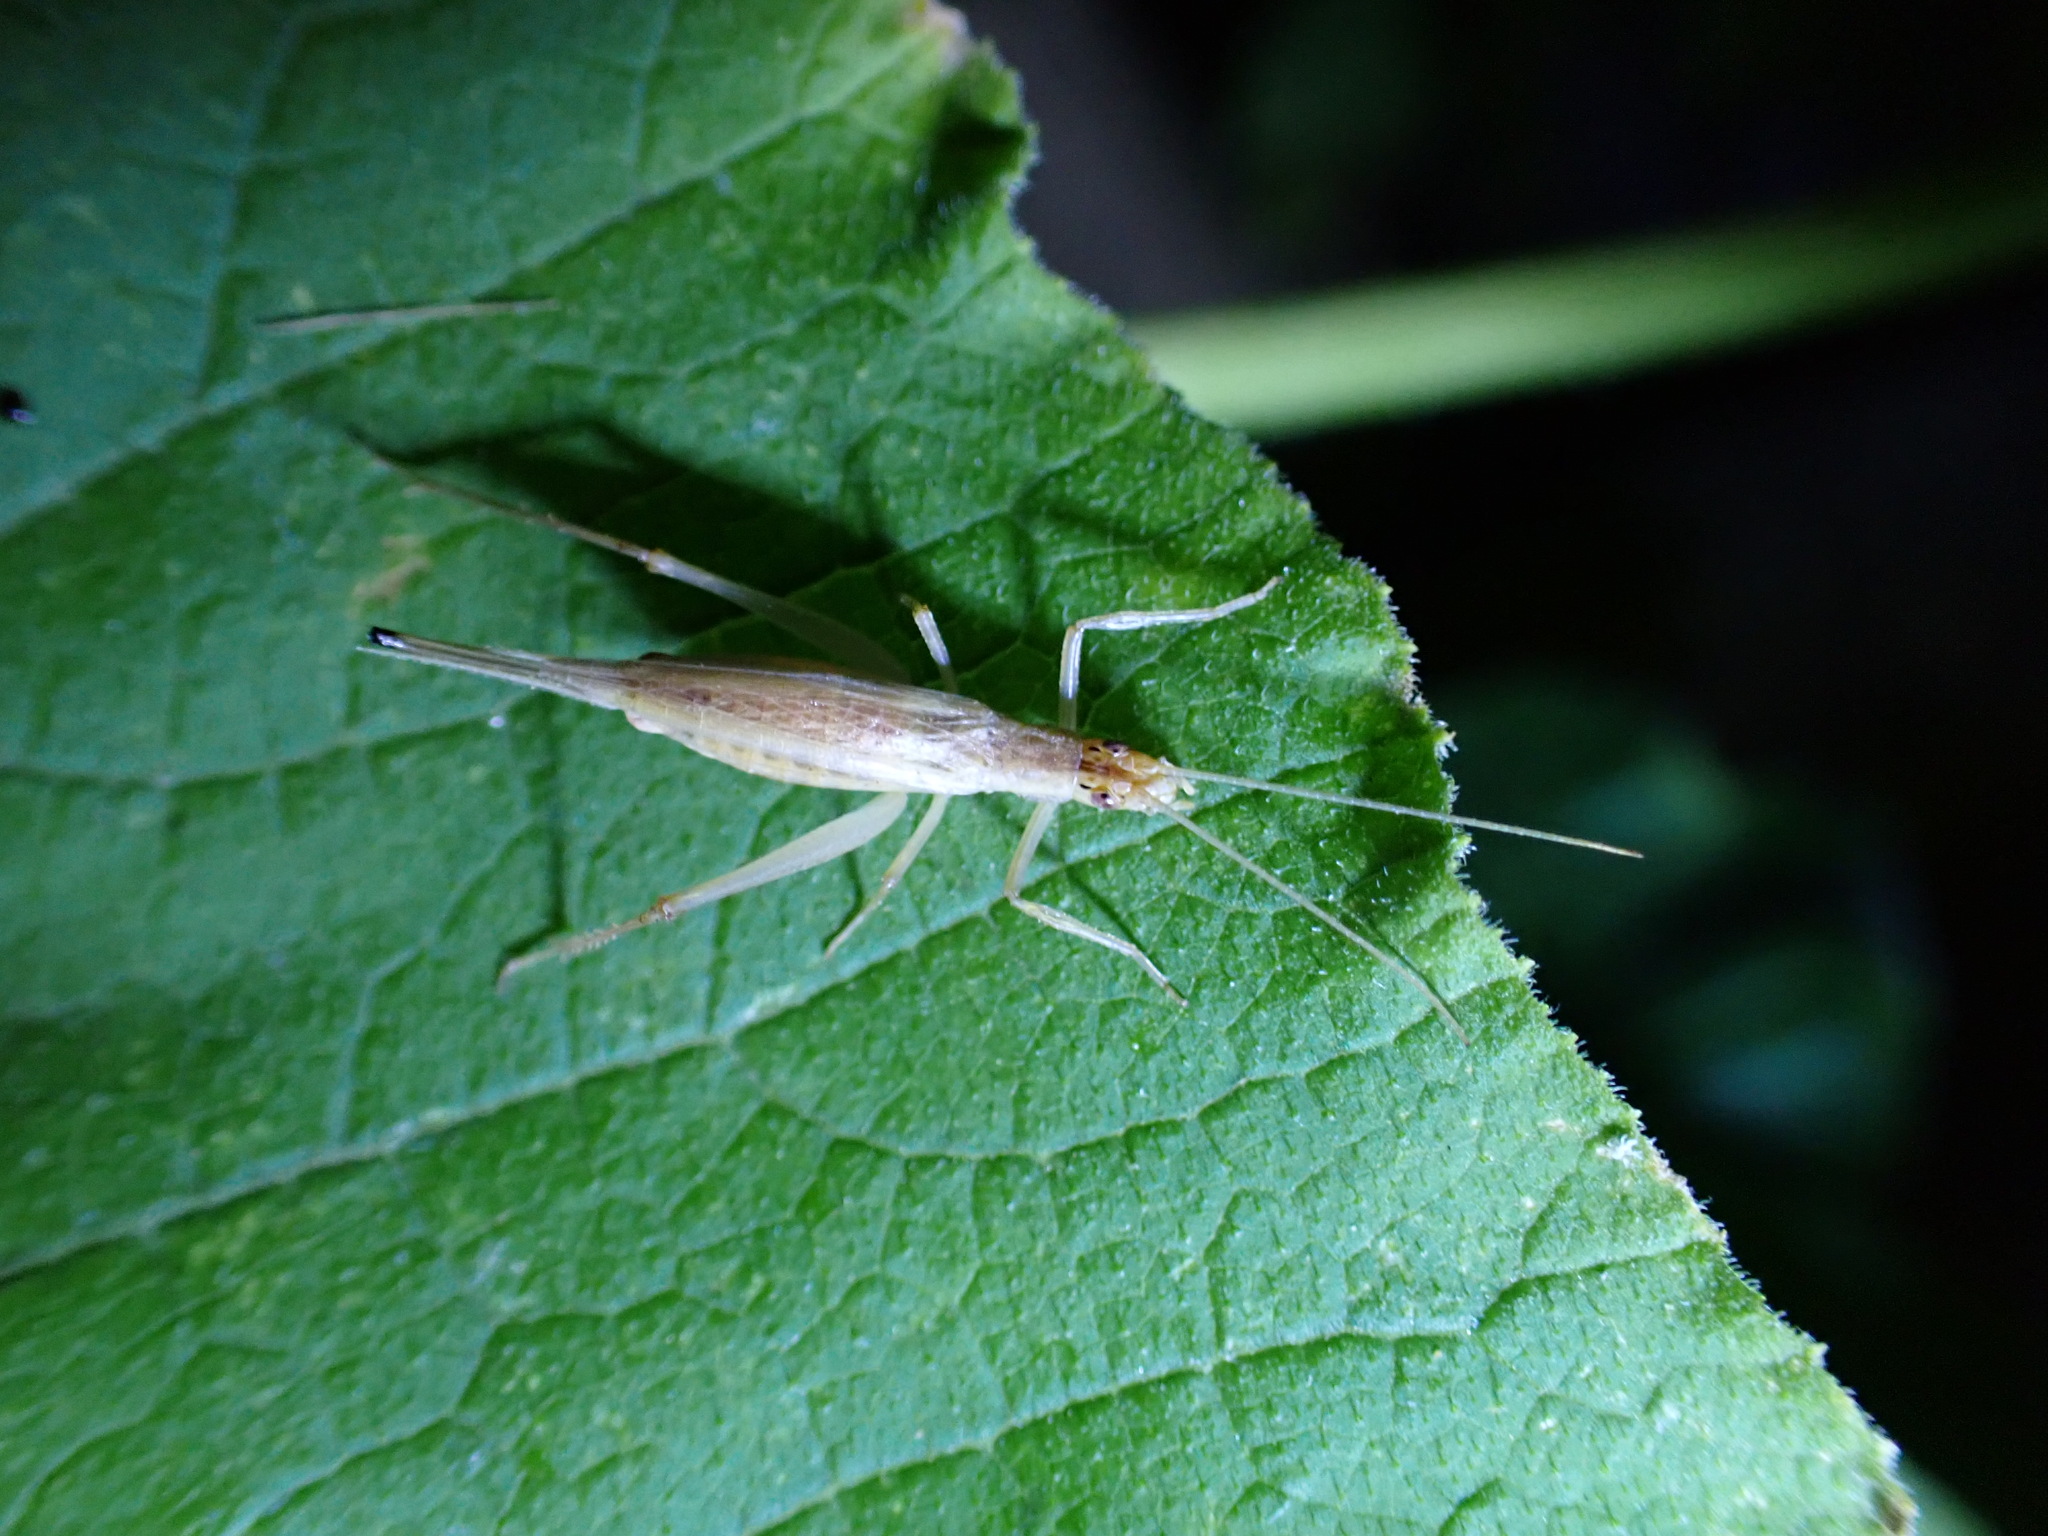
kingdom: Animalia
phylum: Arthropoda
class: Insecta
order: Orthoptera
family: Gryllidae
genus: Oecanthus
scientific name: Oecanthus pellucens
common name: Tree-cricket
